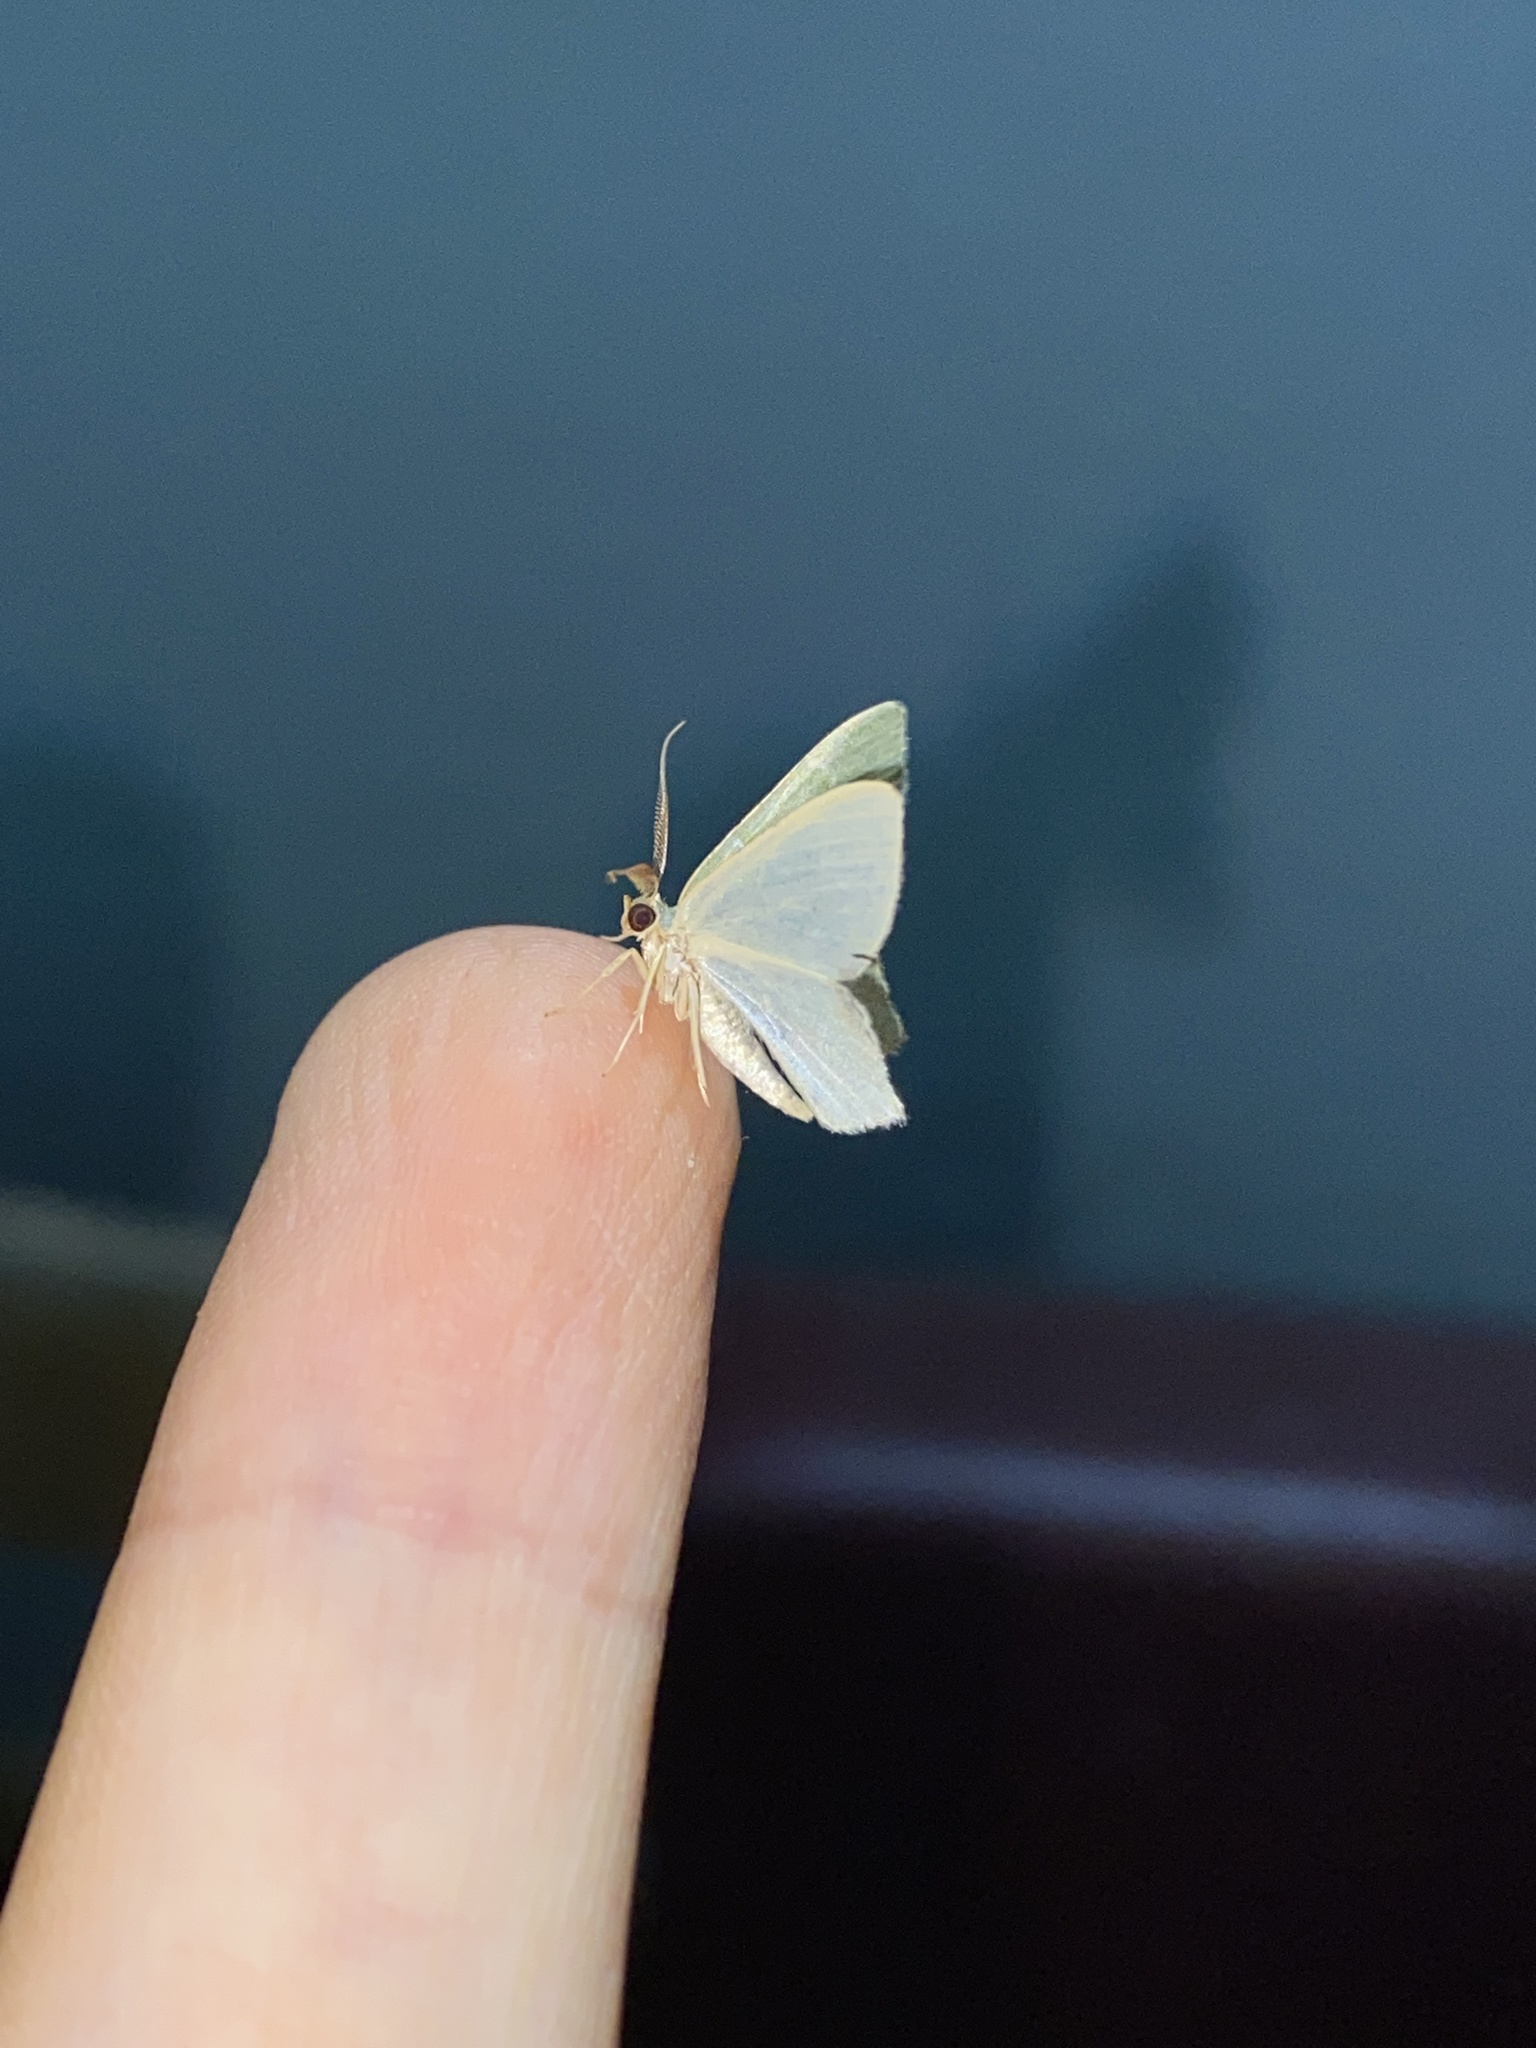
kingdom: Animalia
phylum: Arthropoda
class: Insecta
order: Lepidoptera
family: Geometridae
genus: Chloropteryx
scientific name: Chloropteryx glauciptera
